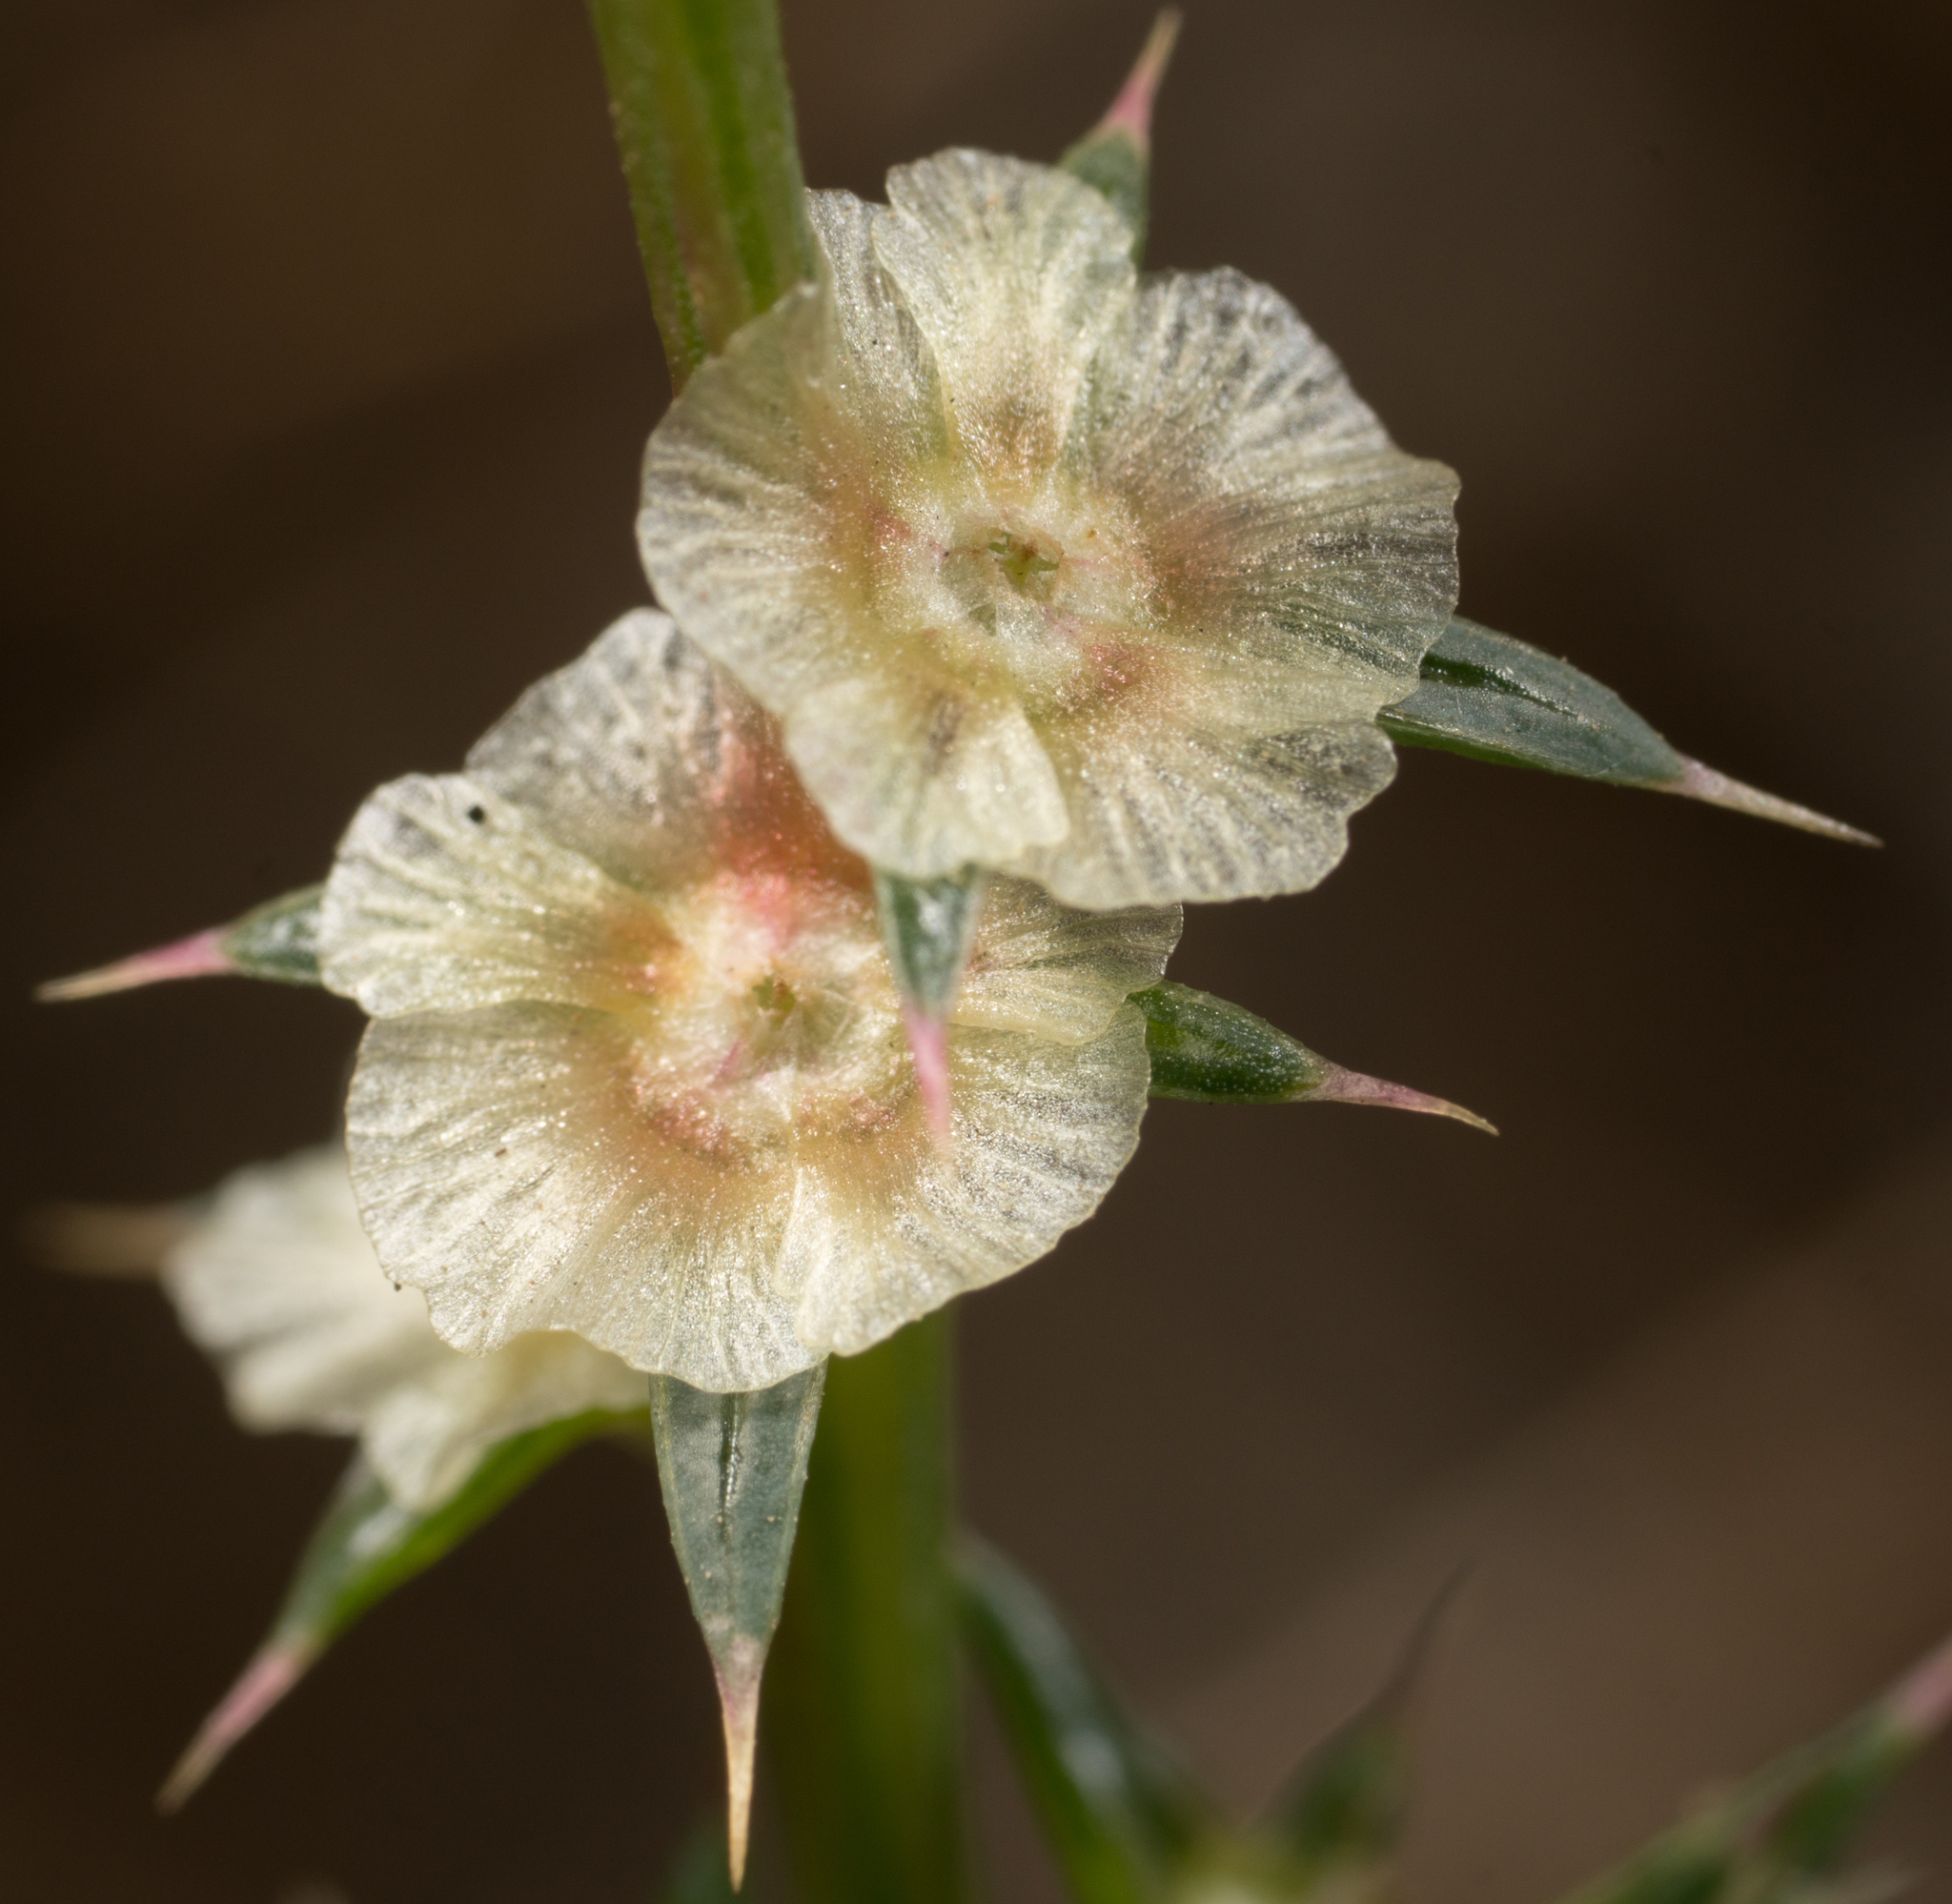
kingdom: Plantae
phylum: Tracheophyta
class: Magnoliopsida
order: Caryophyllales
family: Amaranthaceae
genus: Salsola
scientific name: Salsola australis
